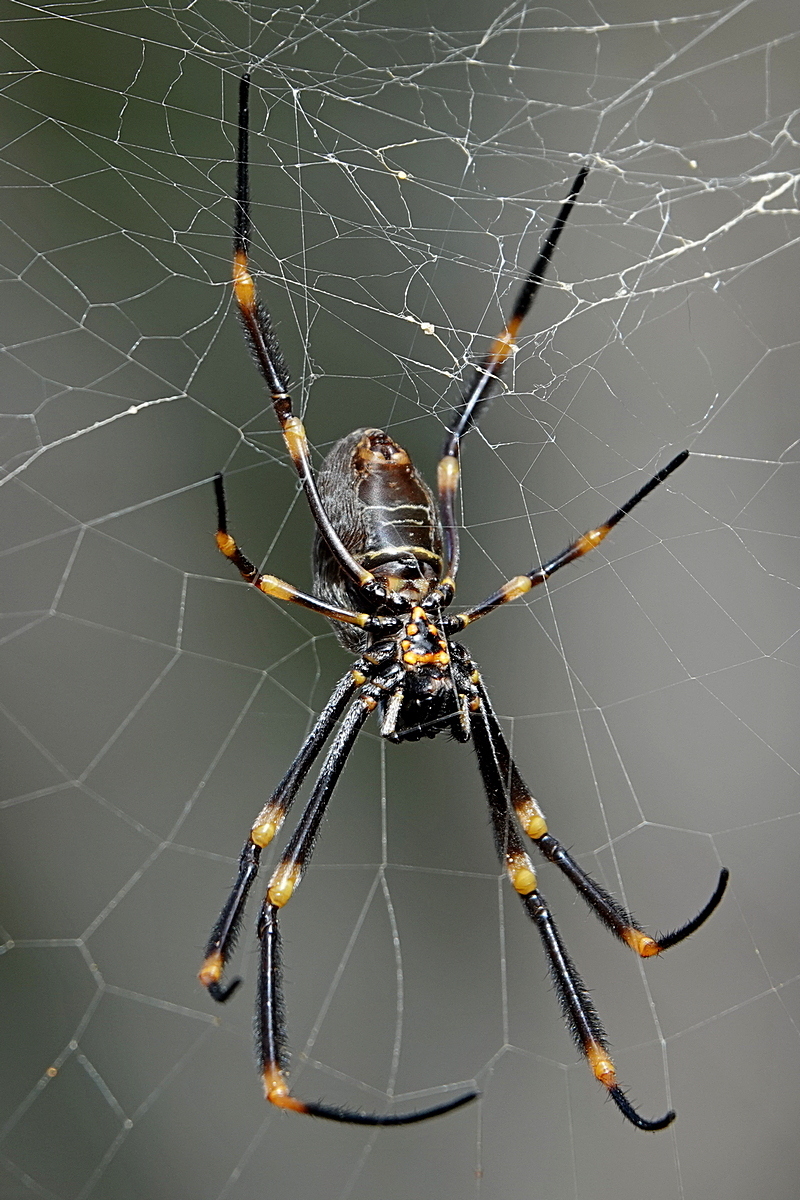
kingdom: Animalia
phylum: Arthropoda
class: Arachnida
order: Araneae
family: Araneidae
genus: Trichonephila
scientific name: Trichonephila plumipes
